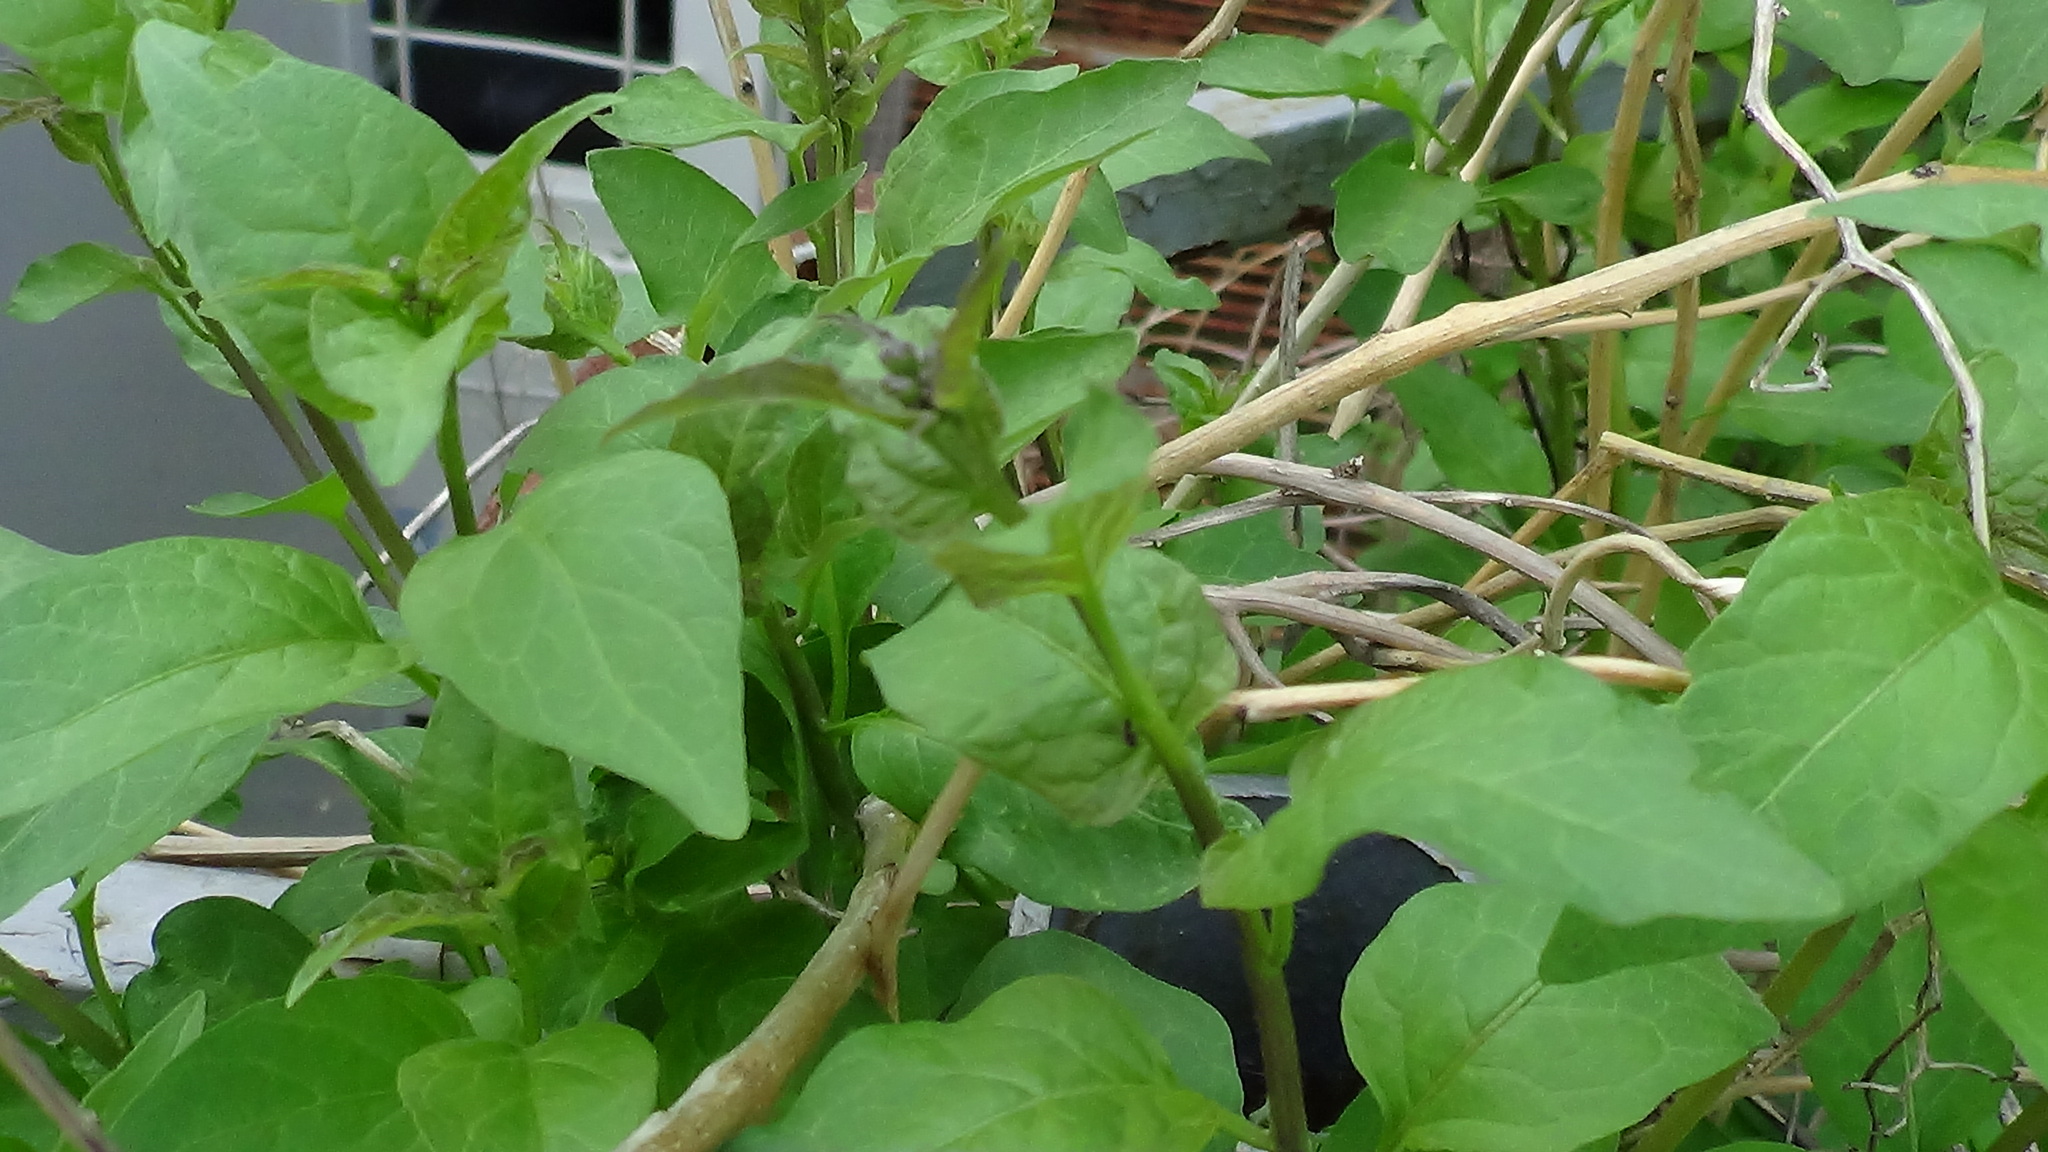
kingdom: Plantae
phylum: Tracheophyta
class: Magnoliopsida
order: Solanales
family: Solanaceae
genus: Solanum
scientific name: Solanum dulcamara
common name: Climbing nightshade
